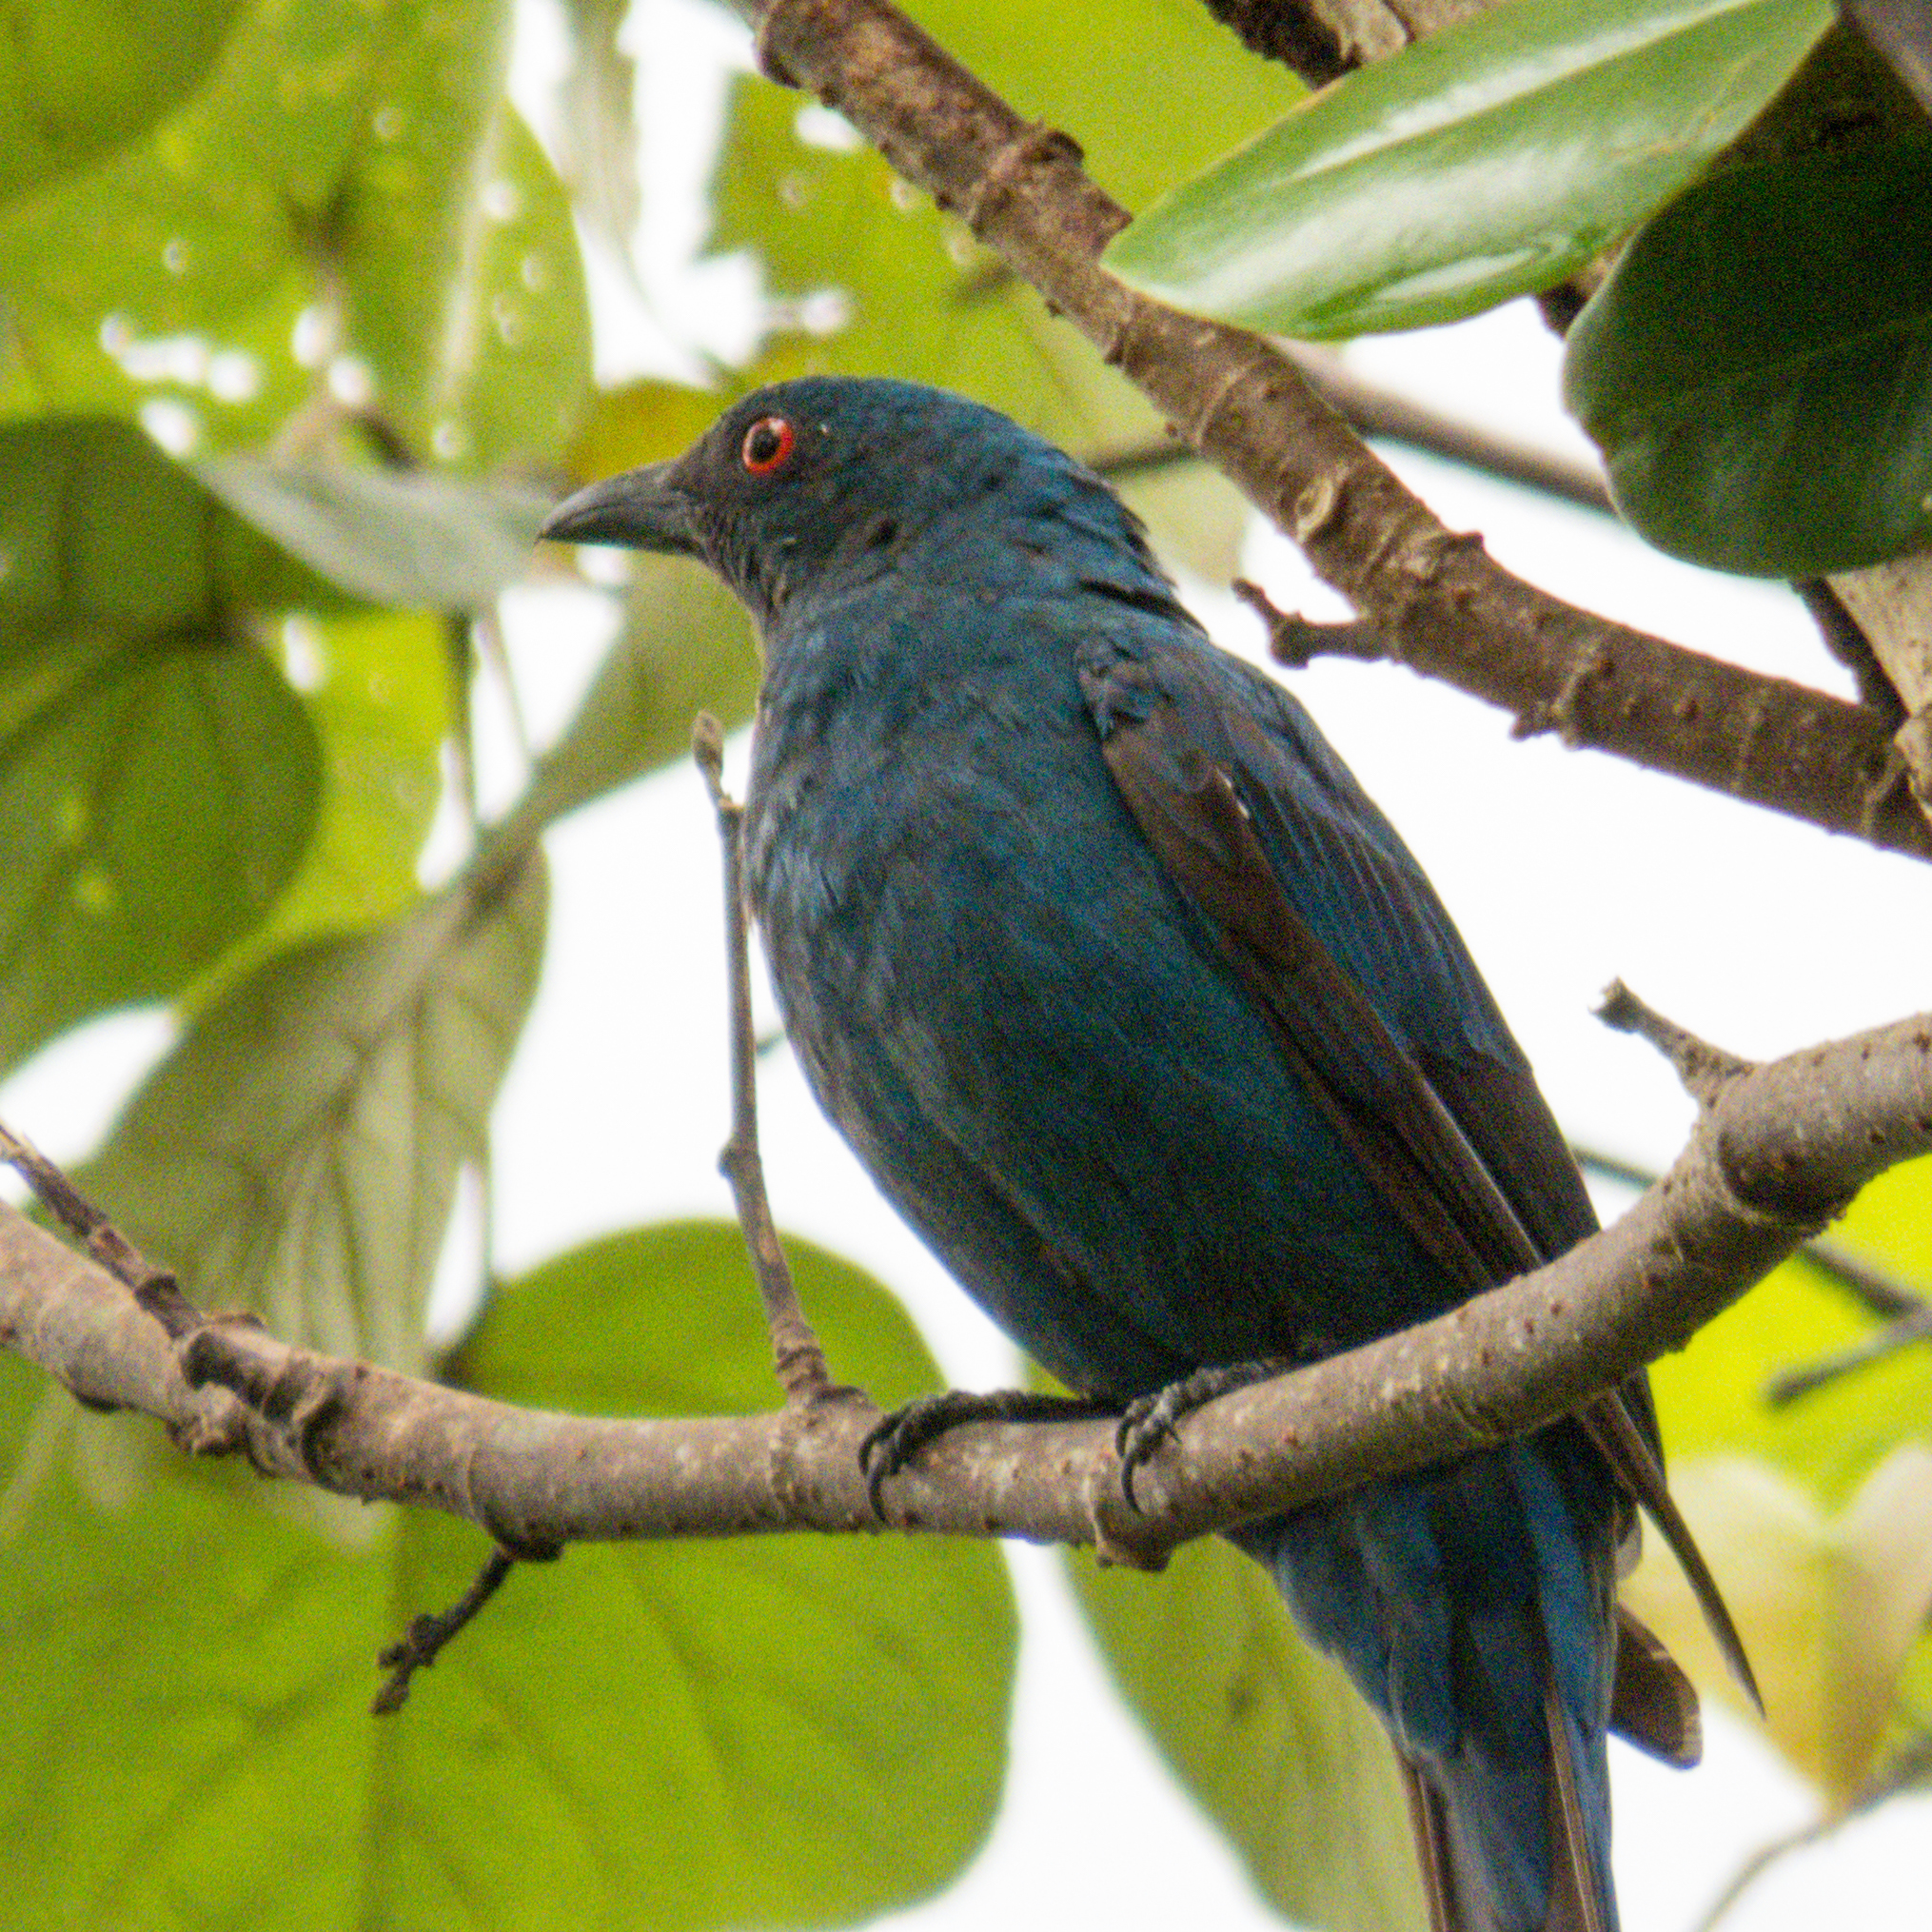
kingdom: Animalia
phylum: Chordata
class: Aves
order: Passeriformes
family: Irenidae
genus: Irena
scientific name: Irena puella
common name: Asian fairy-bluebird
